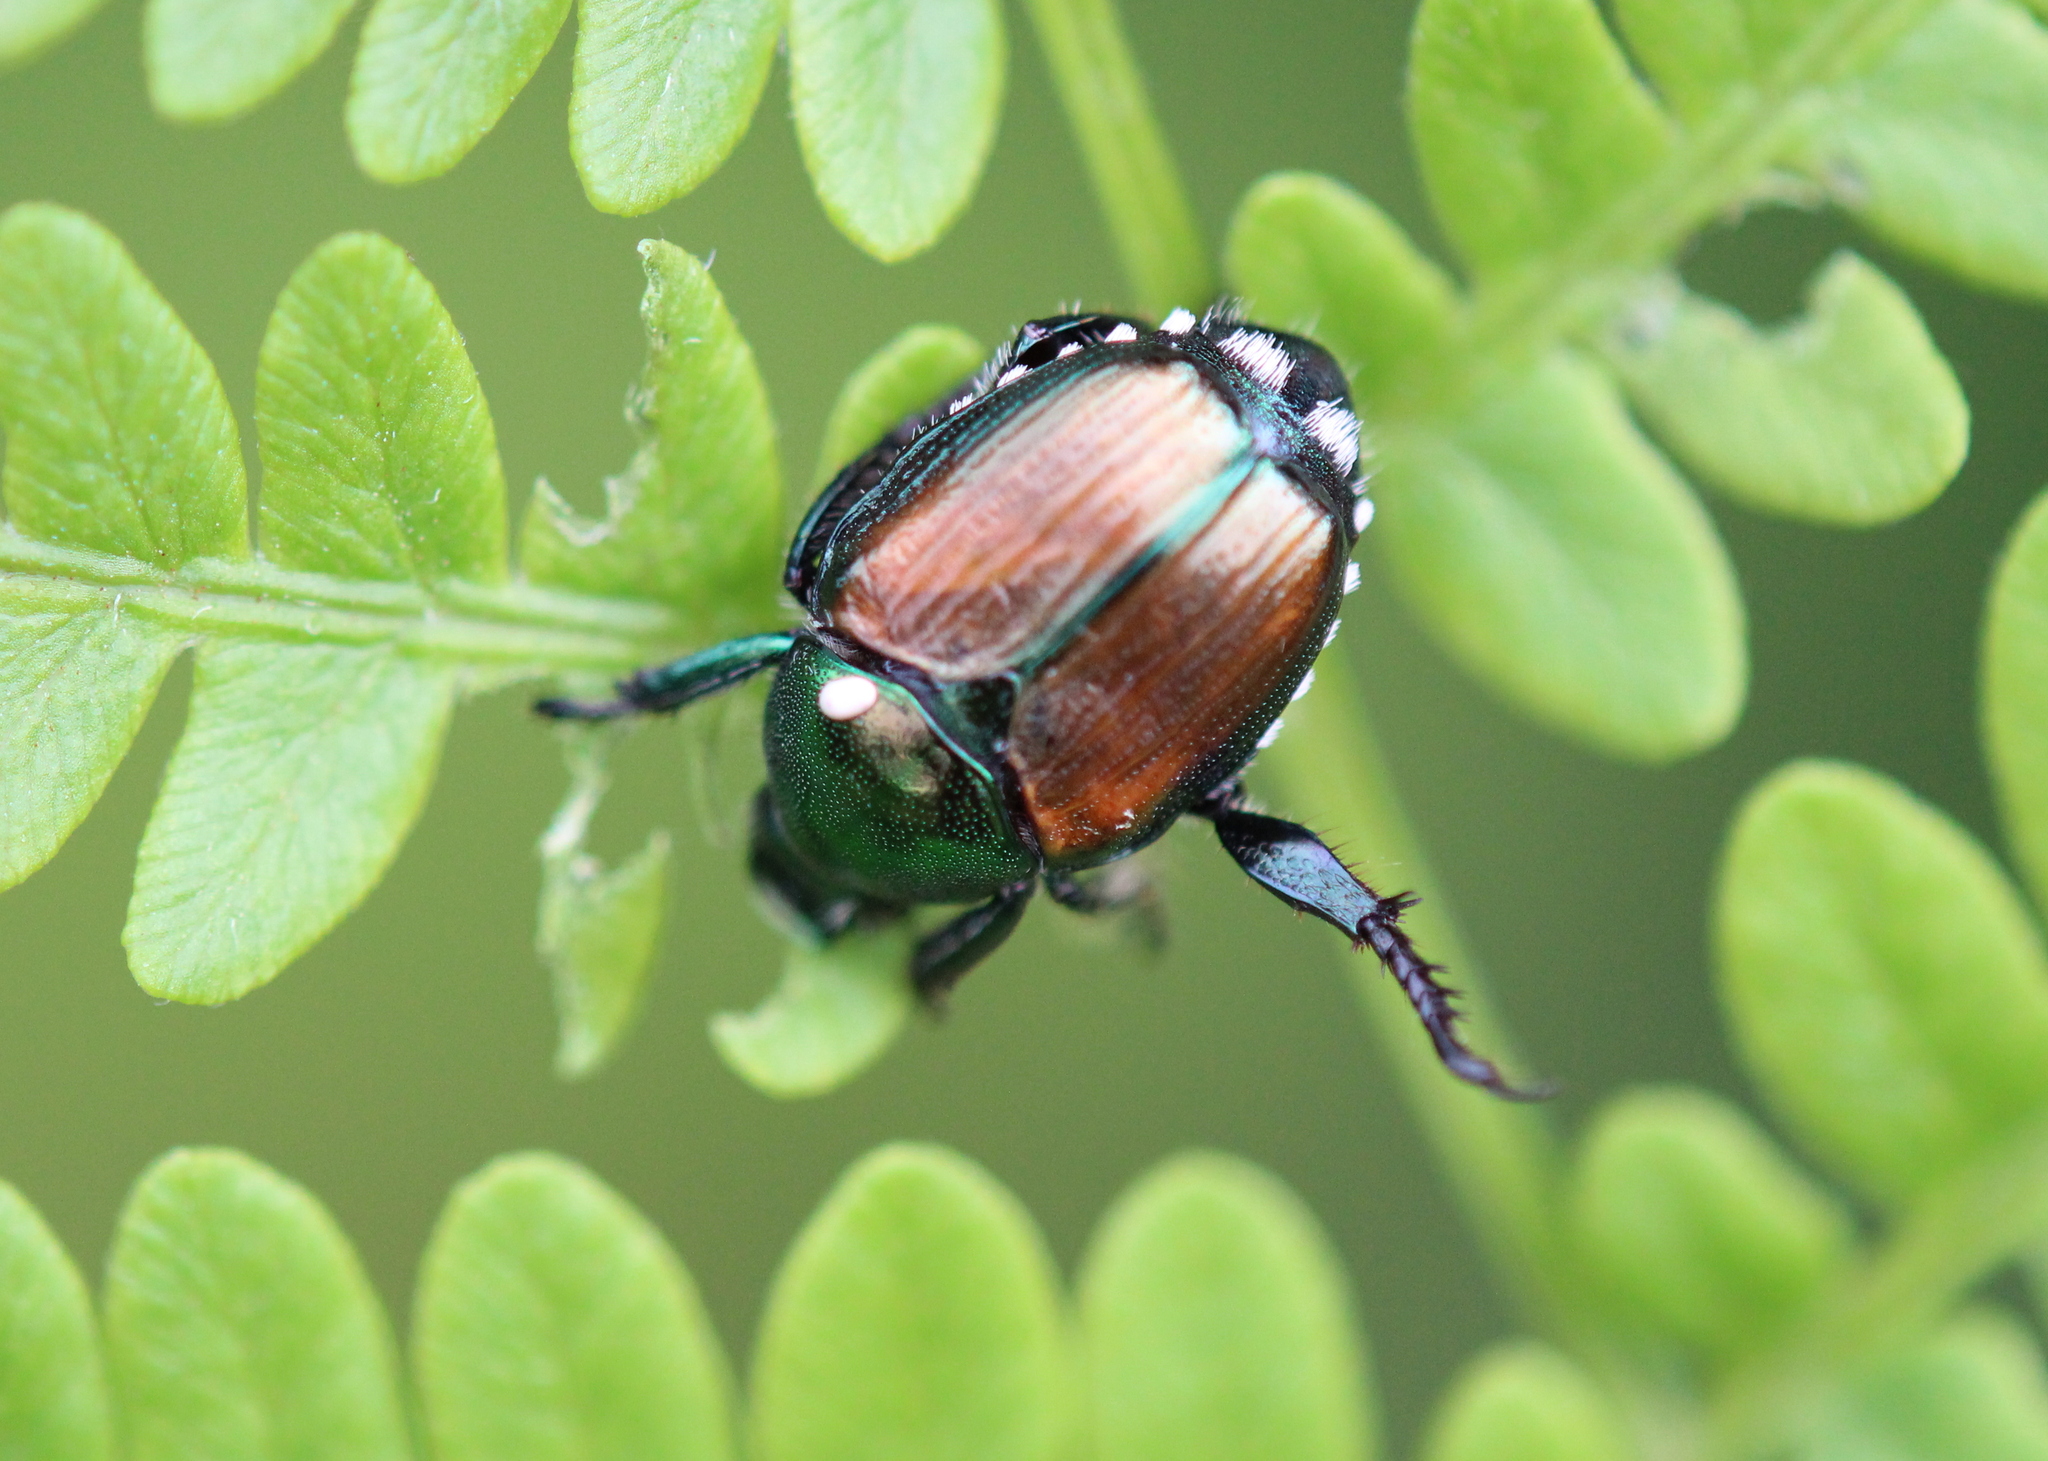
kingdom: Animalia
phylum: Arthropoda
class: Insecta
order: Diptera
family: Tachinidae
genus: Istocheta
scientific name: Istocheta aldrichi
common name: Parasitic wasp
